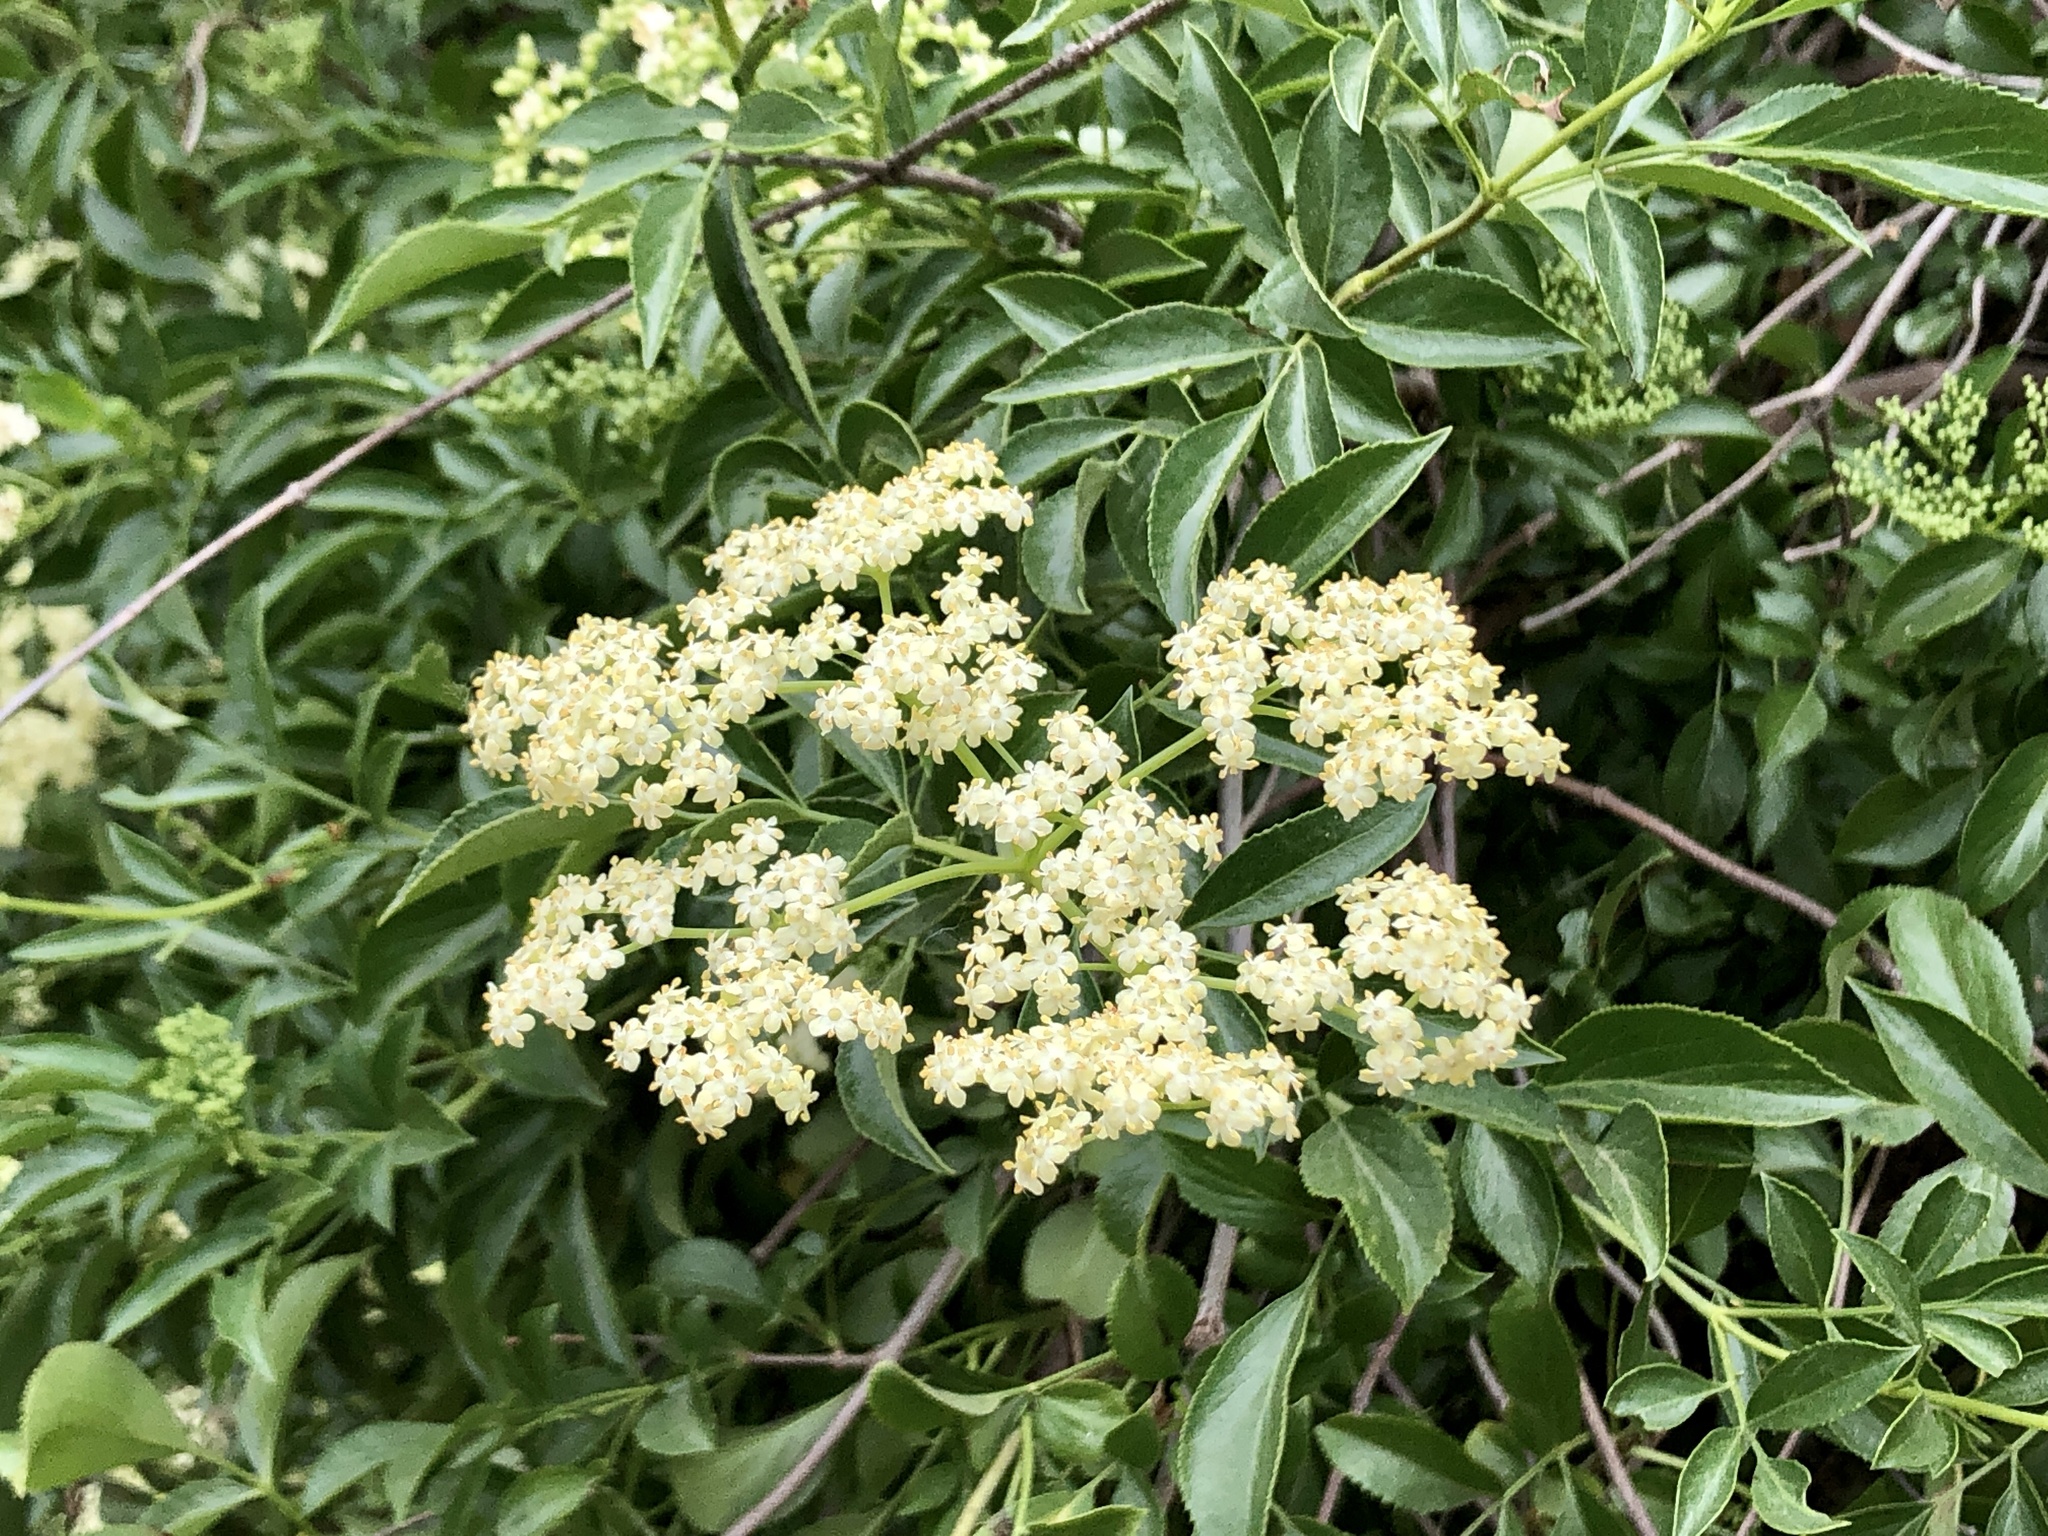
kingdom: Plantae
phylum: Tracheophyta
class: Magnoliopsida
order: Dipsacales
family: Viburnaceae
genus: Sambucus
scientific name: Sambucus cerulea
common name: Blue elder
